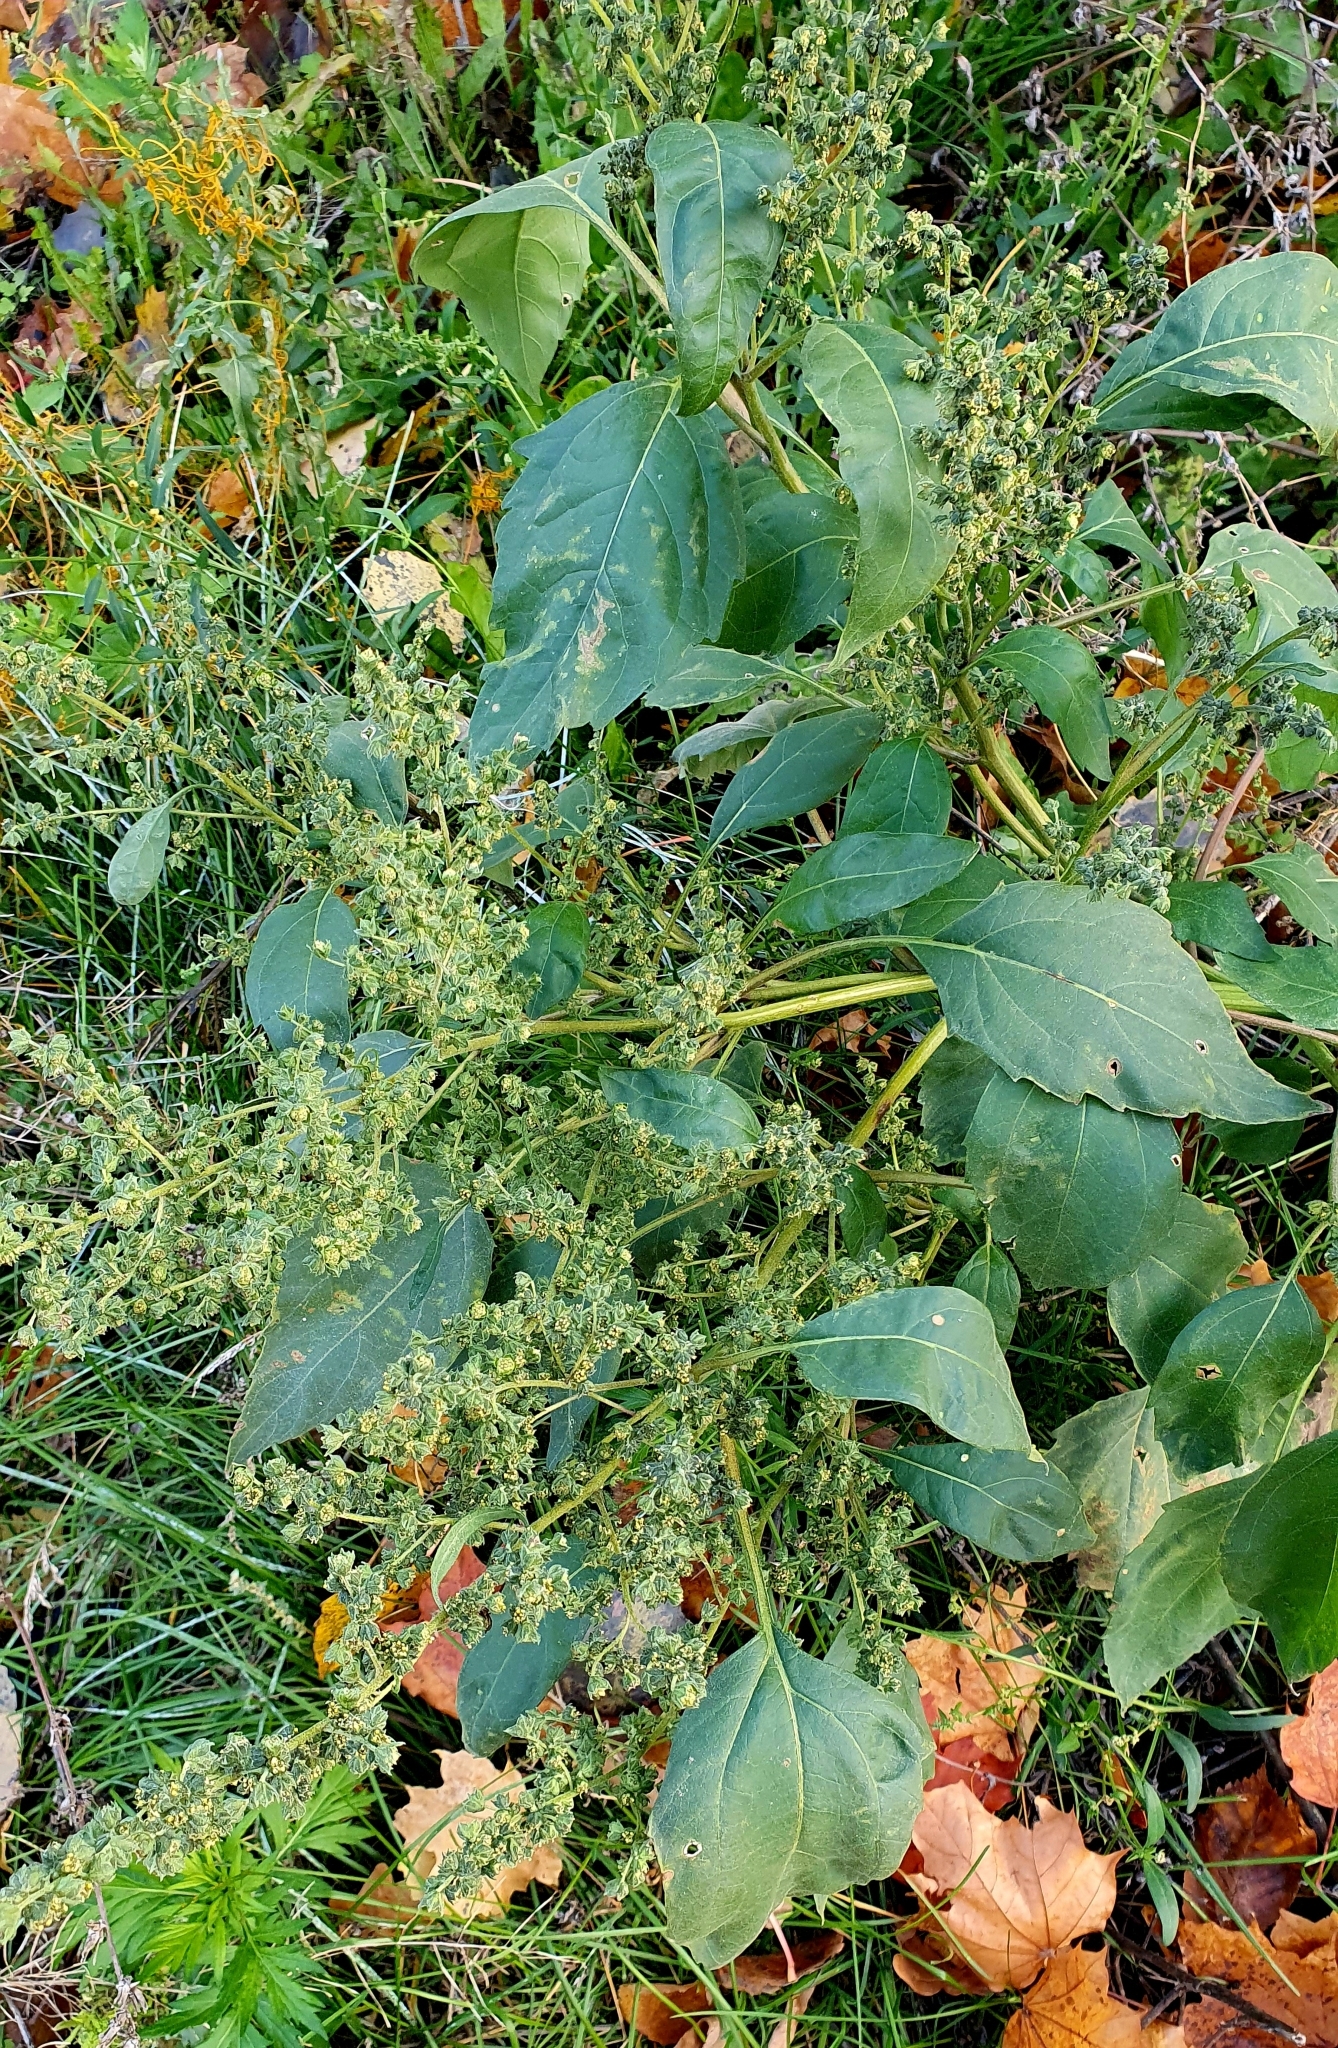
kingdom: Plantae
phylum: Tracheophyta
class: Magnoliopsida
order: Asterales
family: Asteraceae
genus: Cyclachaena
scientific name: Cyclachaena xanthiifolia
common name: Giant sumpweed
